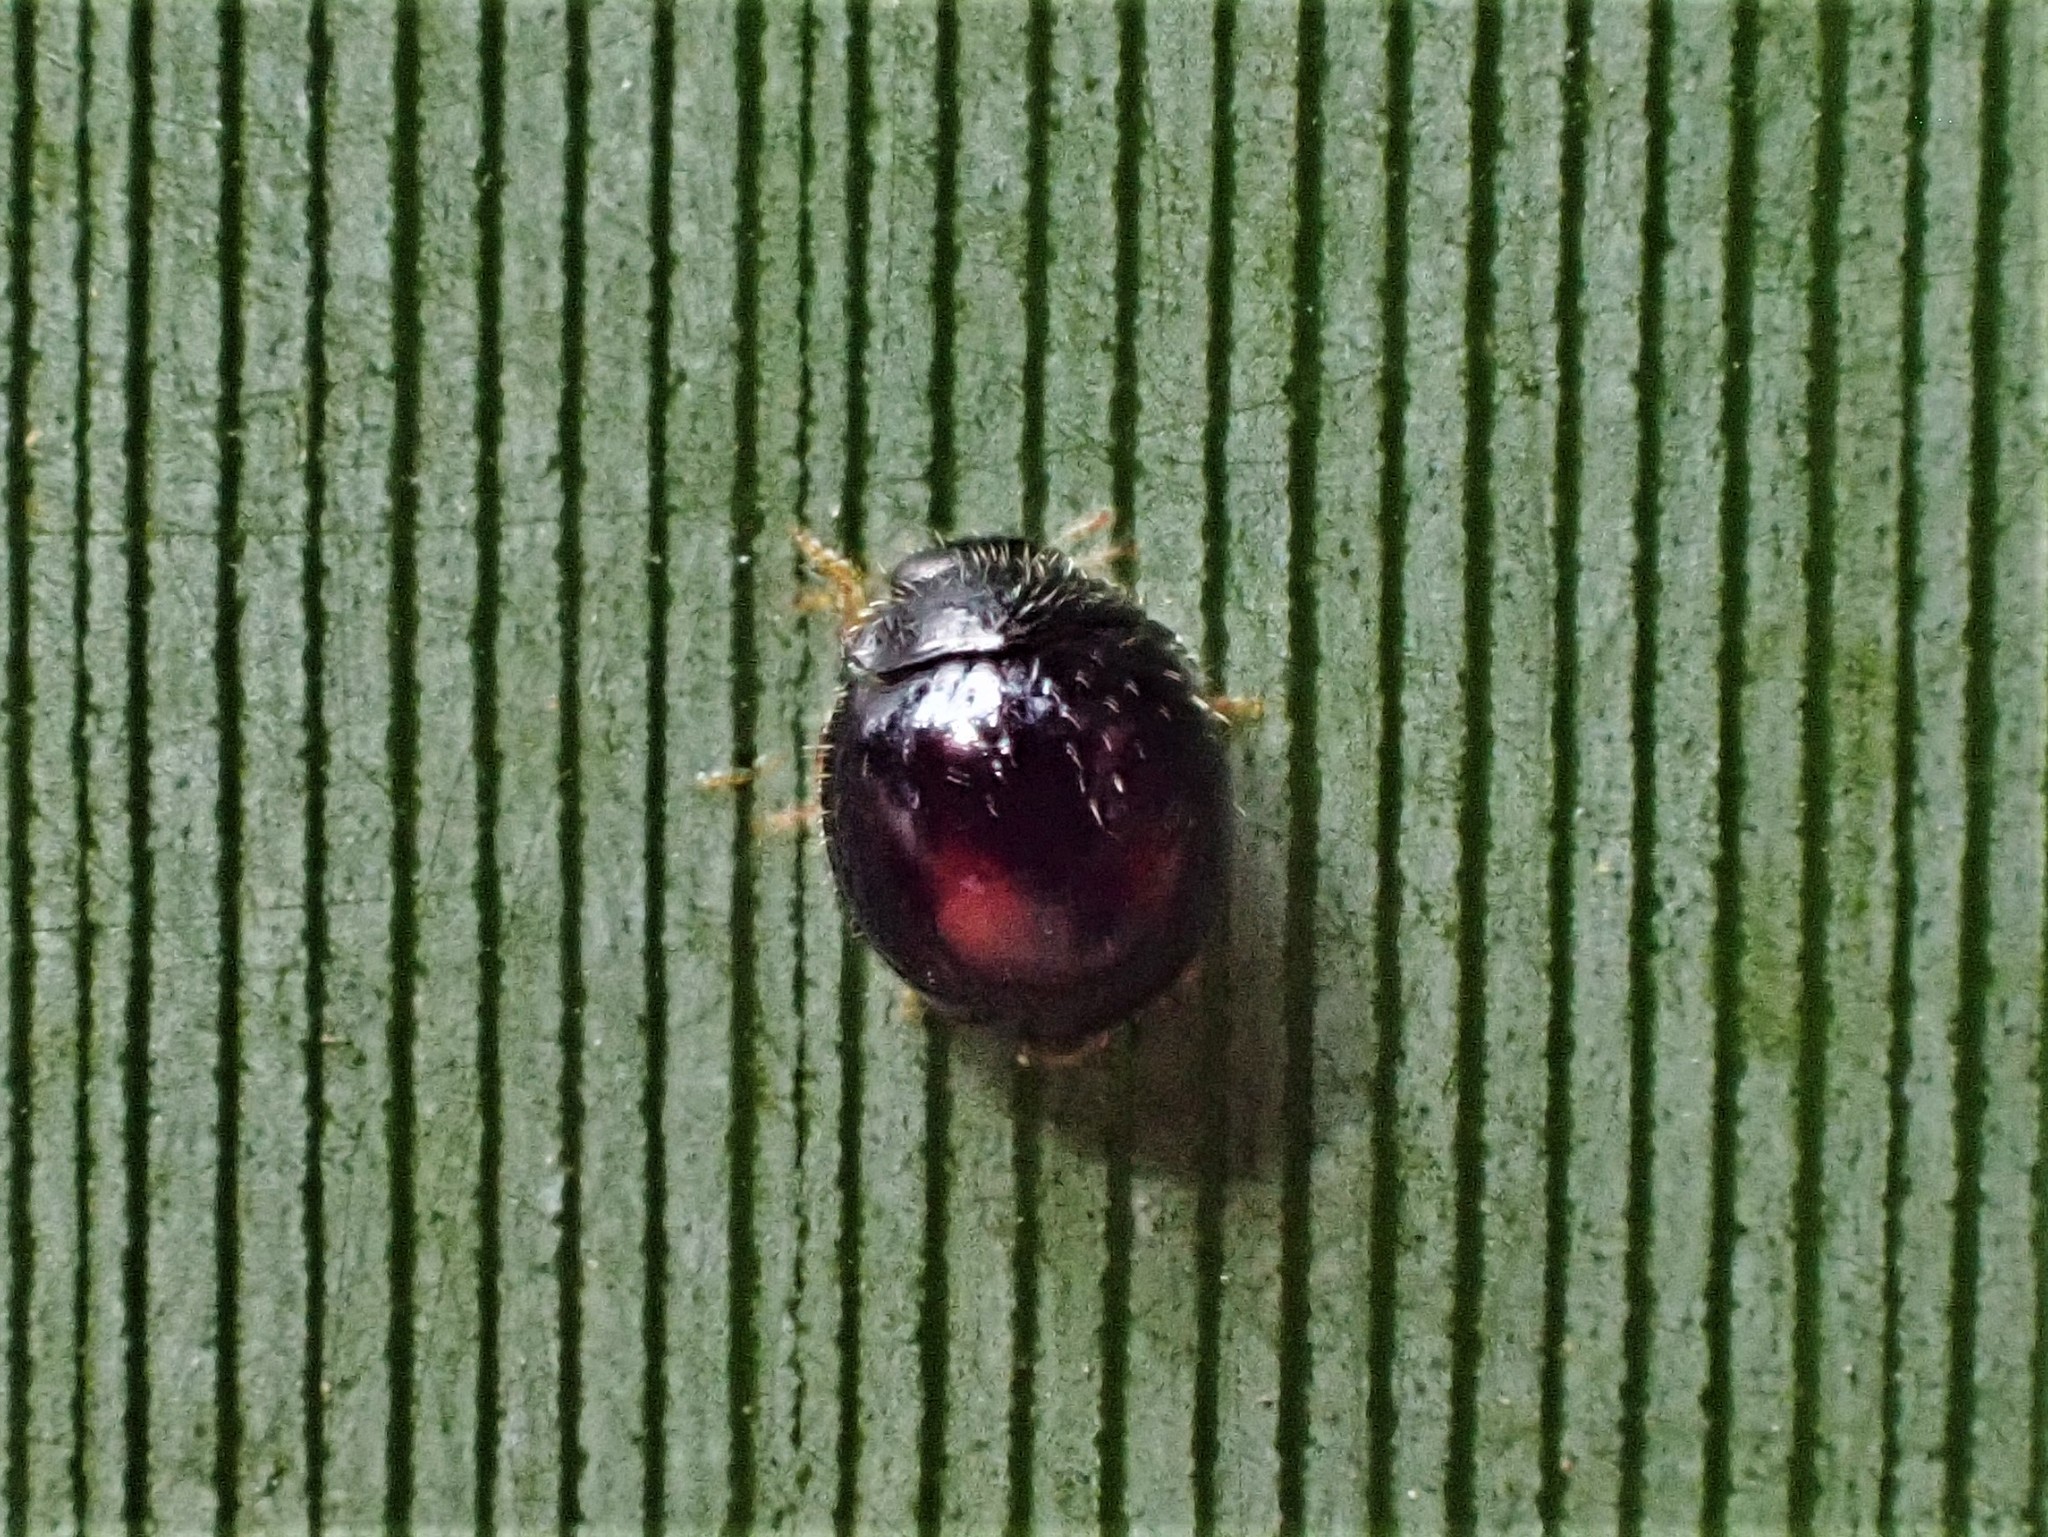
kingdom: Animalia
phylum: Arthropoda
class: Insecta
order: Coleoptera
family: Coccinellidae
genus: Serangium
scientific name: Serangium maculigerum
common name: Lady beetle
